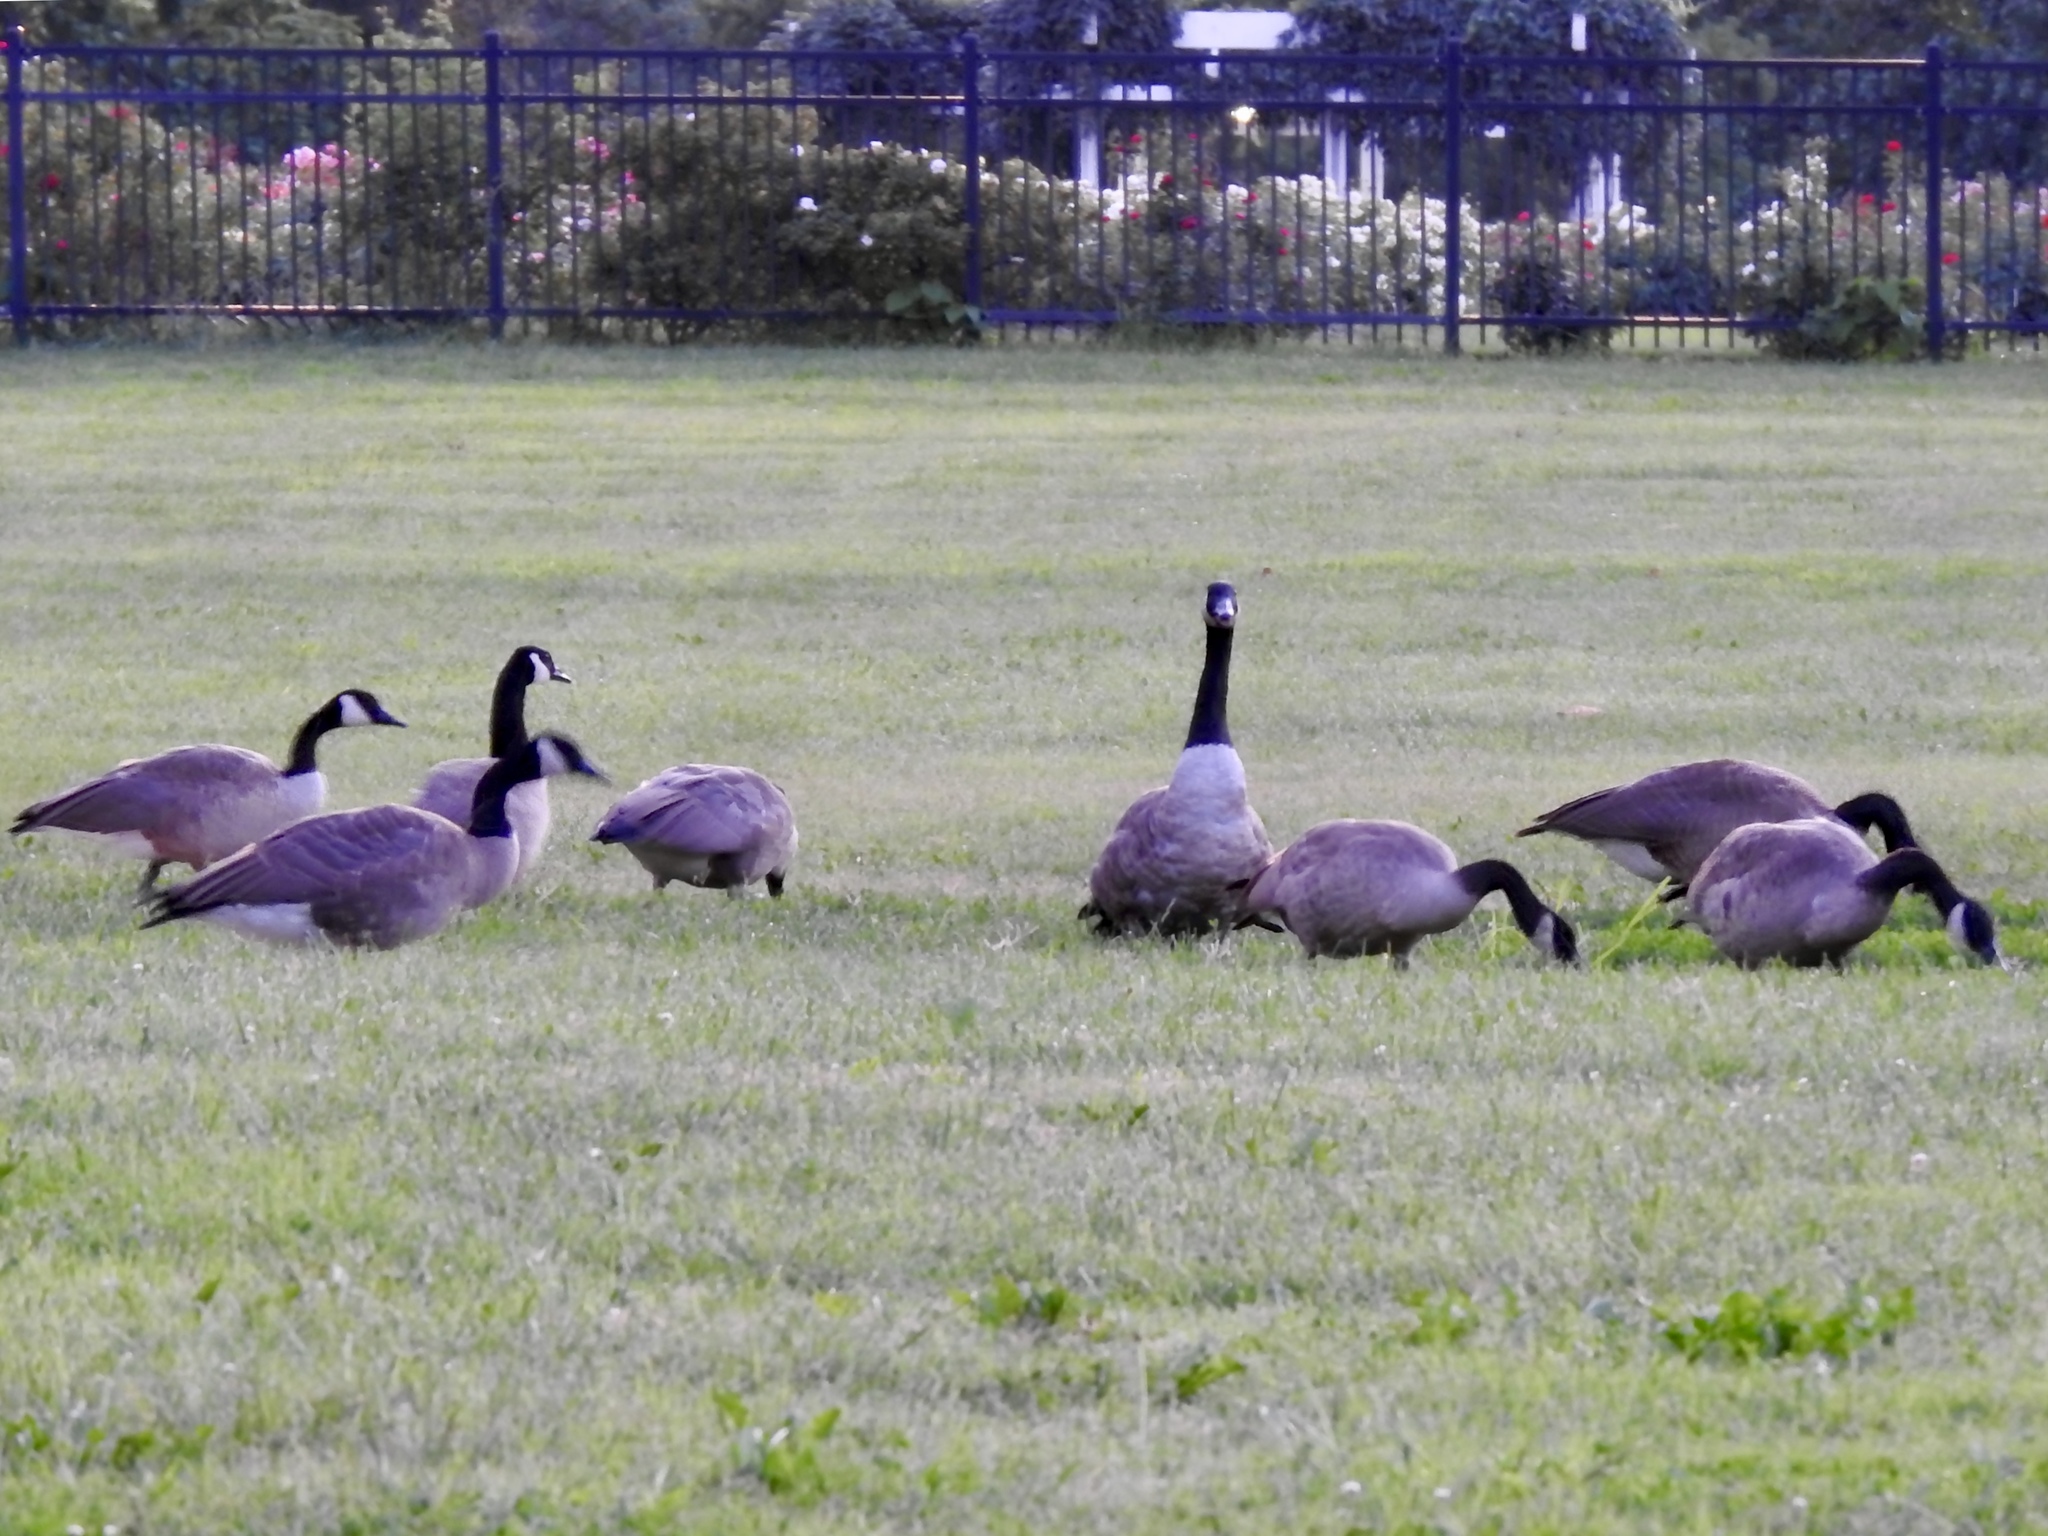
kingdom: Animalia
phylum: Chordata
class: Aves
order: Anseriformes
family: Anatidae
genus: Branta
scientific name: Branta canadensis
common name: Canada goose
